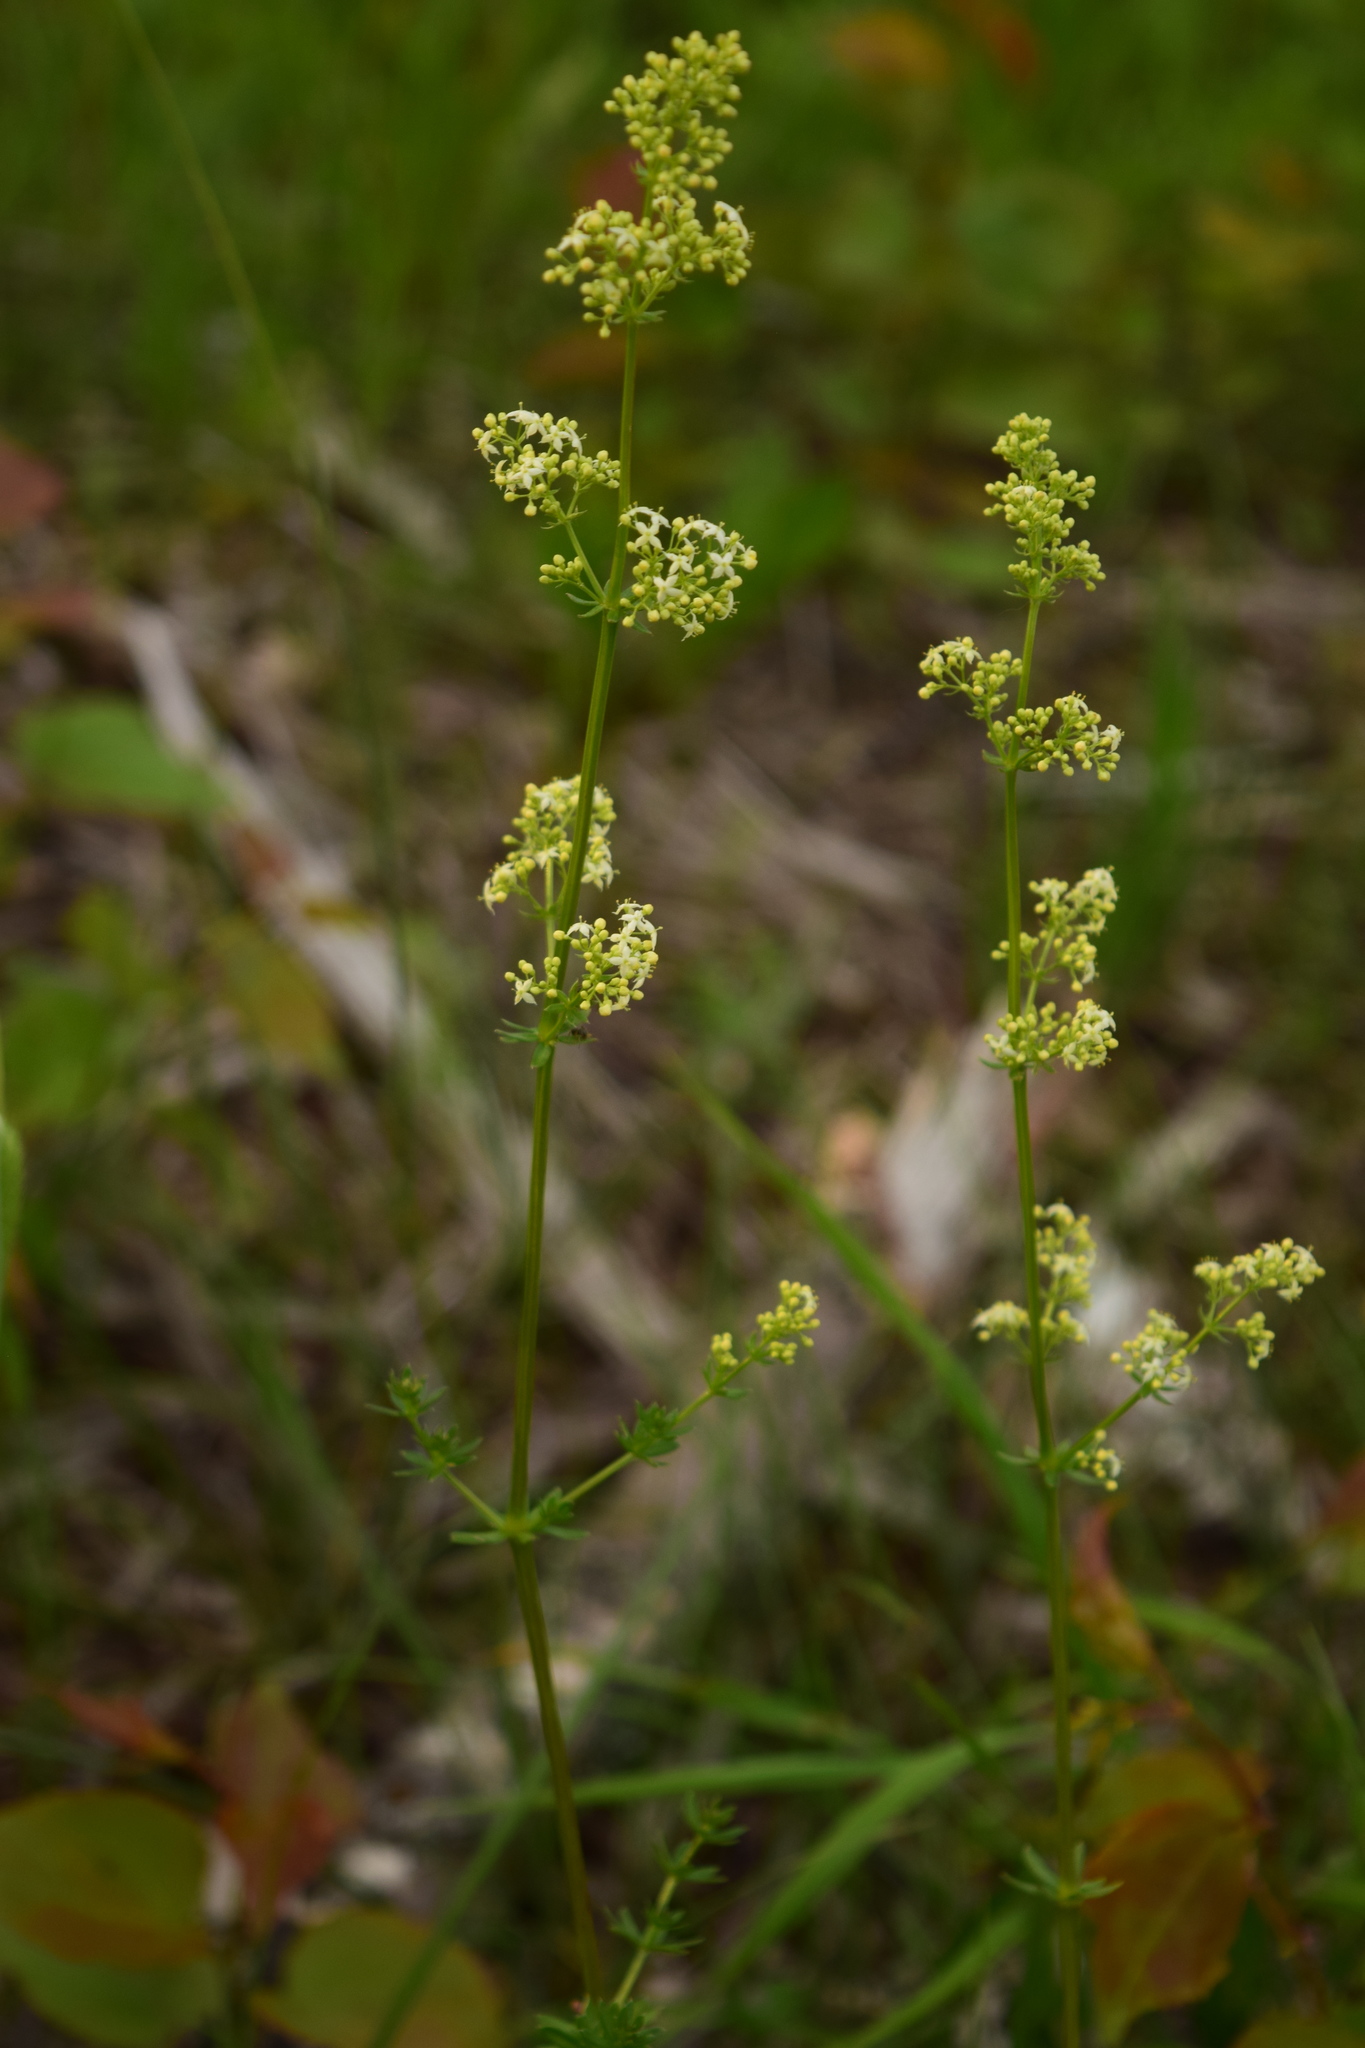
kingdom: Plantae
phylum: Tracheophyta
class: Magnoliopsida
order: Gentianales
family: Rubiaceae
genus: Galium
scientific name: Galium mollugo
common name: Hedge bedstraw
